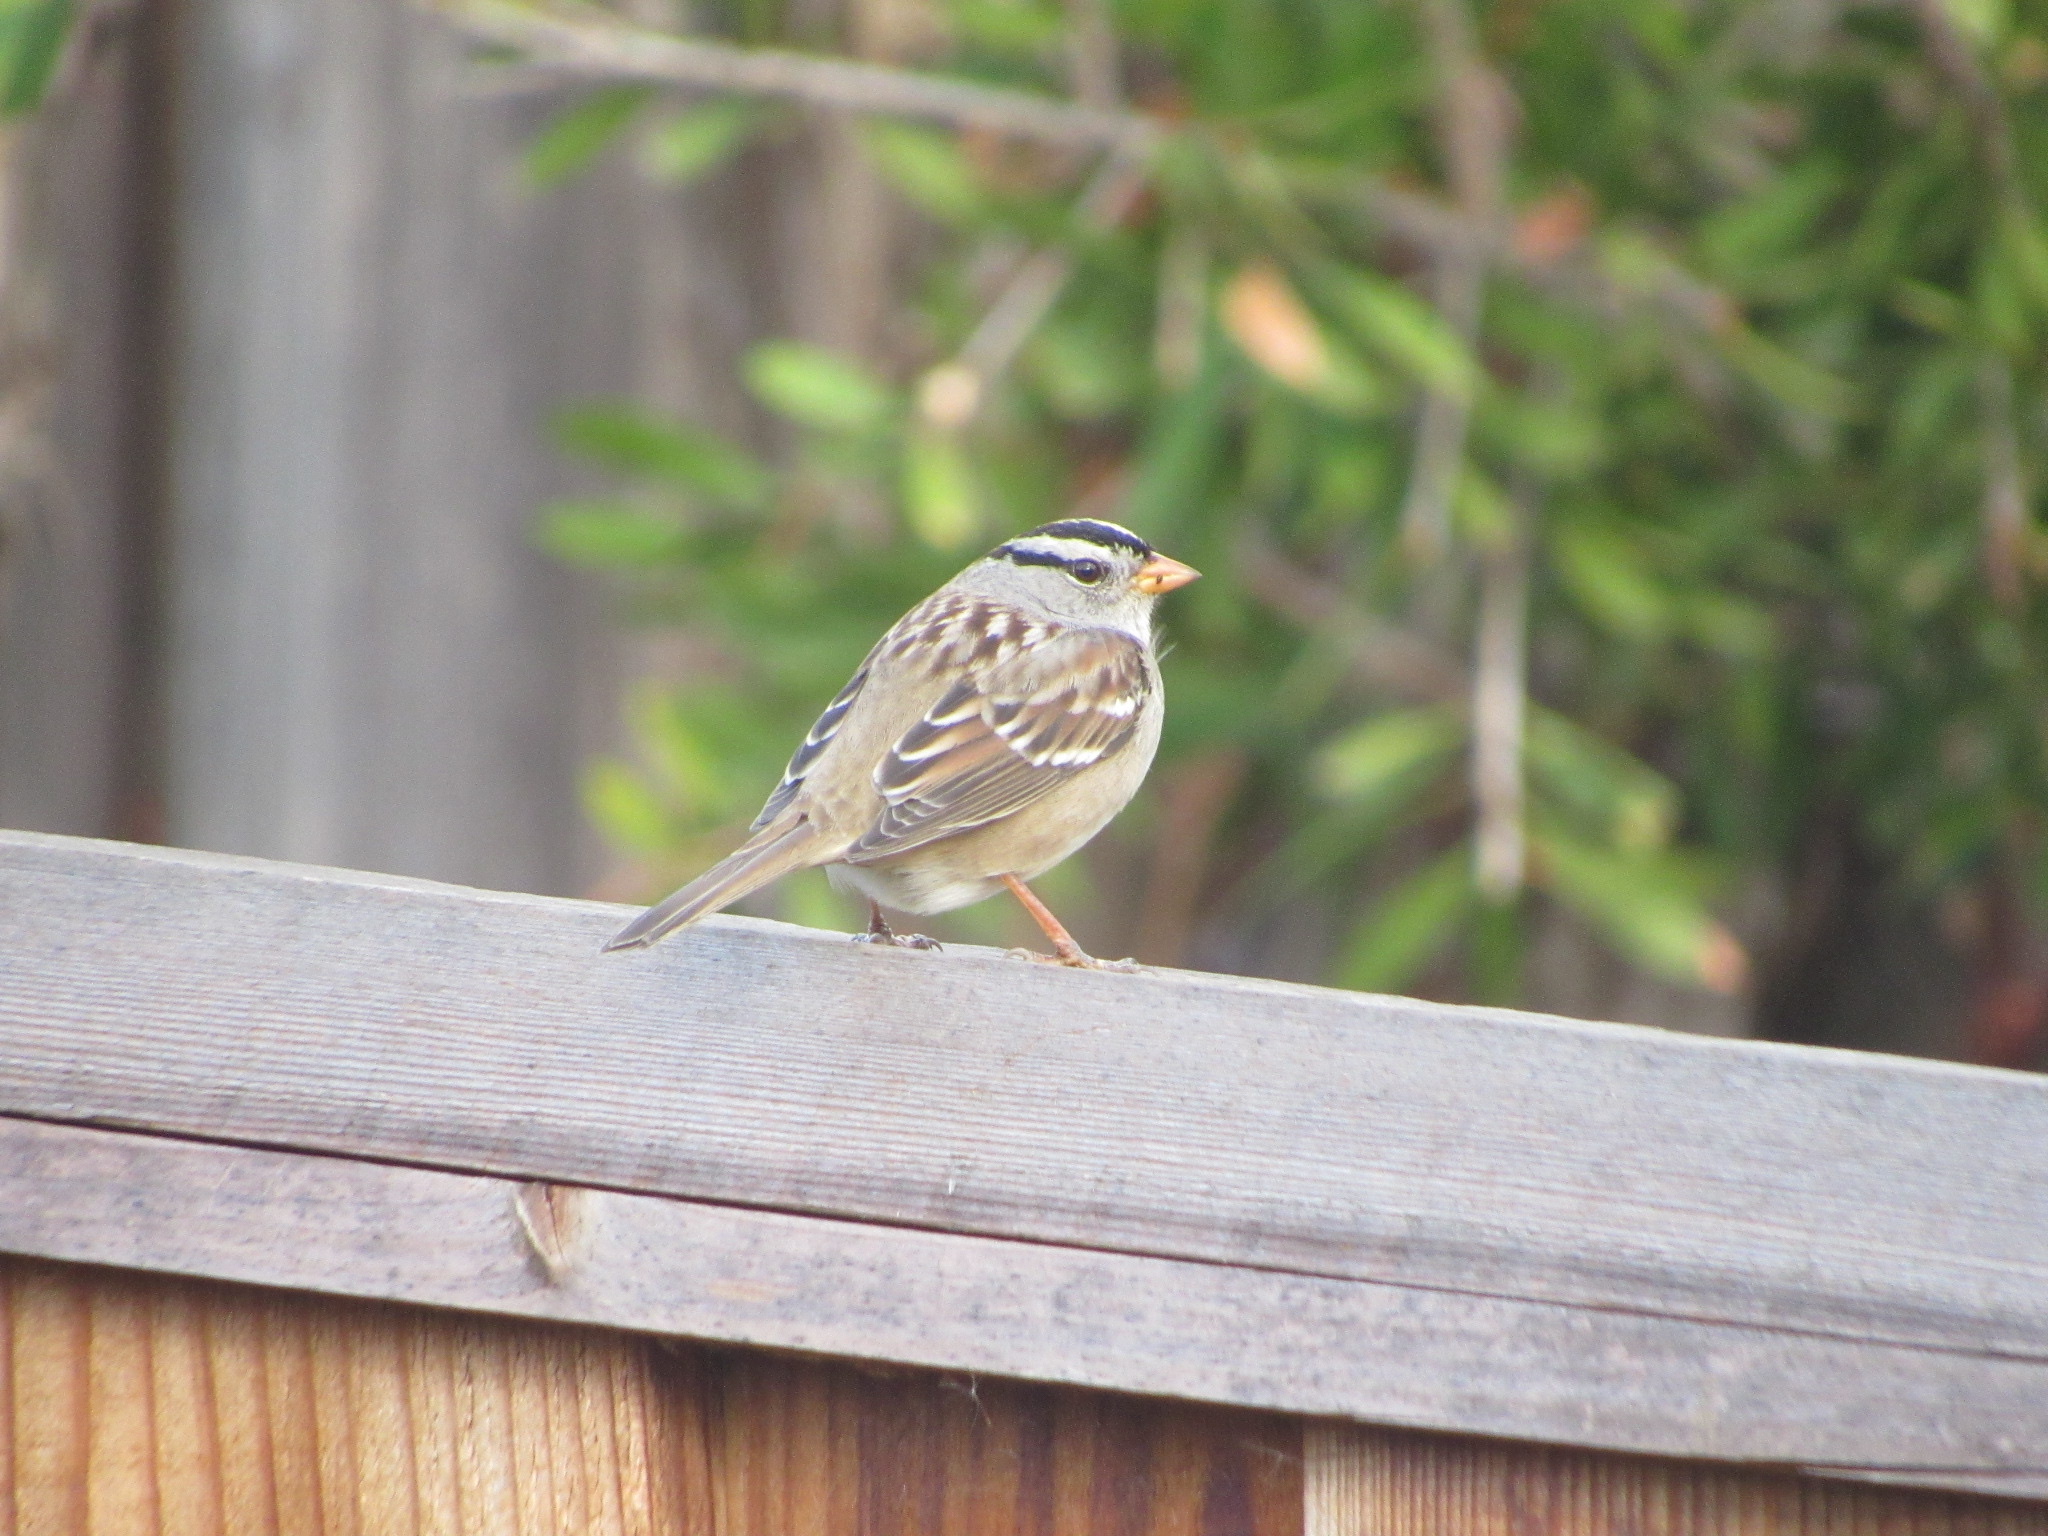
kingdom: Animalia
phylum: Chordata
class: Aves
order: Passeriformes
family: Passerellidae
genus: Zonotrichia
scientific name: Zonotrichia leucophrys
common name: White-crowned sparrow
